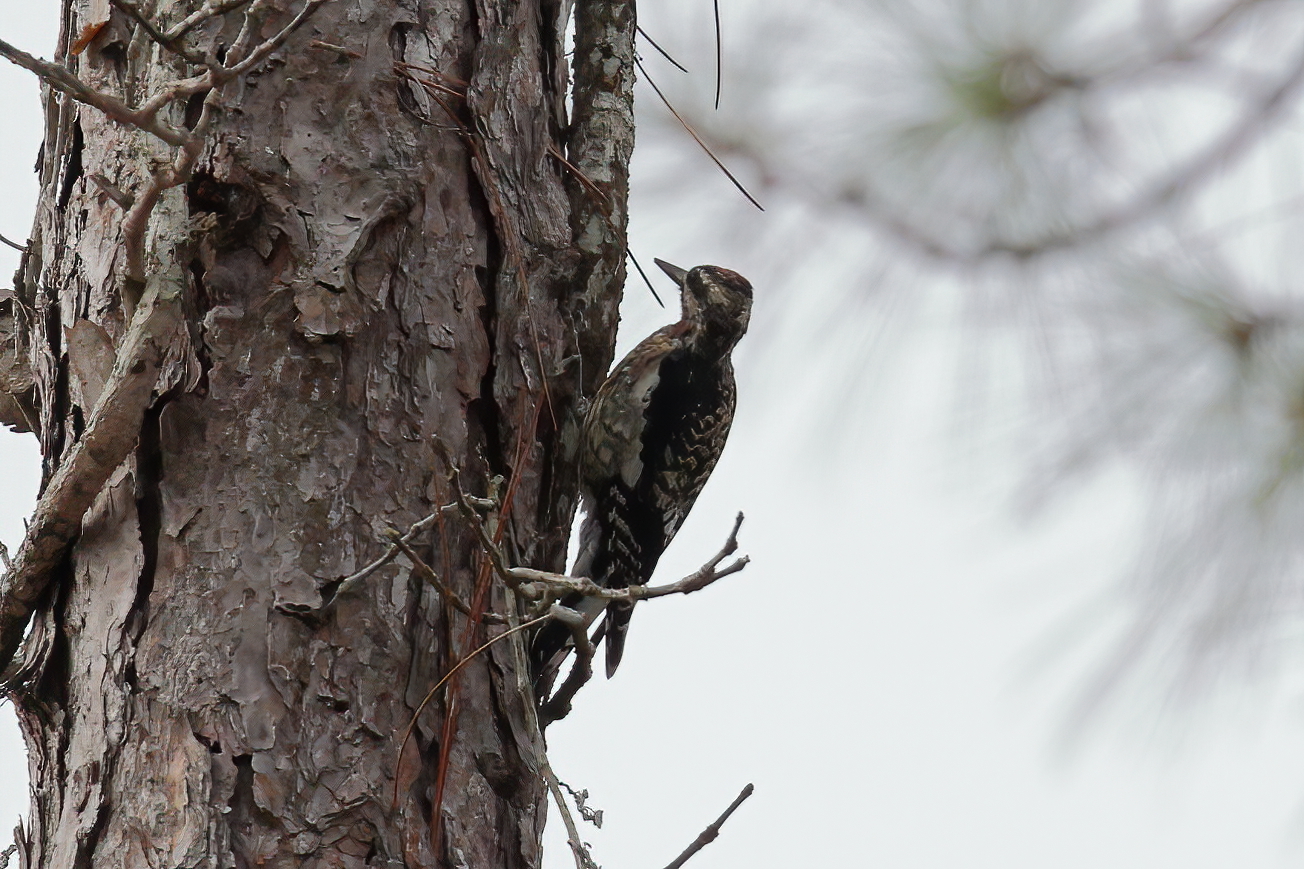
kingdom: Animalia
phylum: Chordata
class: Aves
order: Piciformes
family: Picidae
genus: Sphyrapicus
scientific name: Sphyrapicus varius
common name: Yellow-bellied sapsucker
